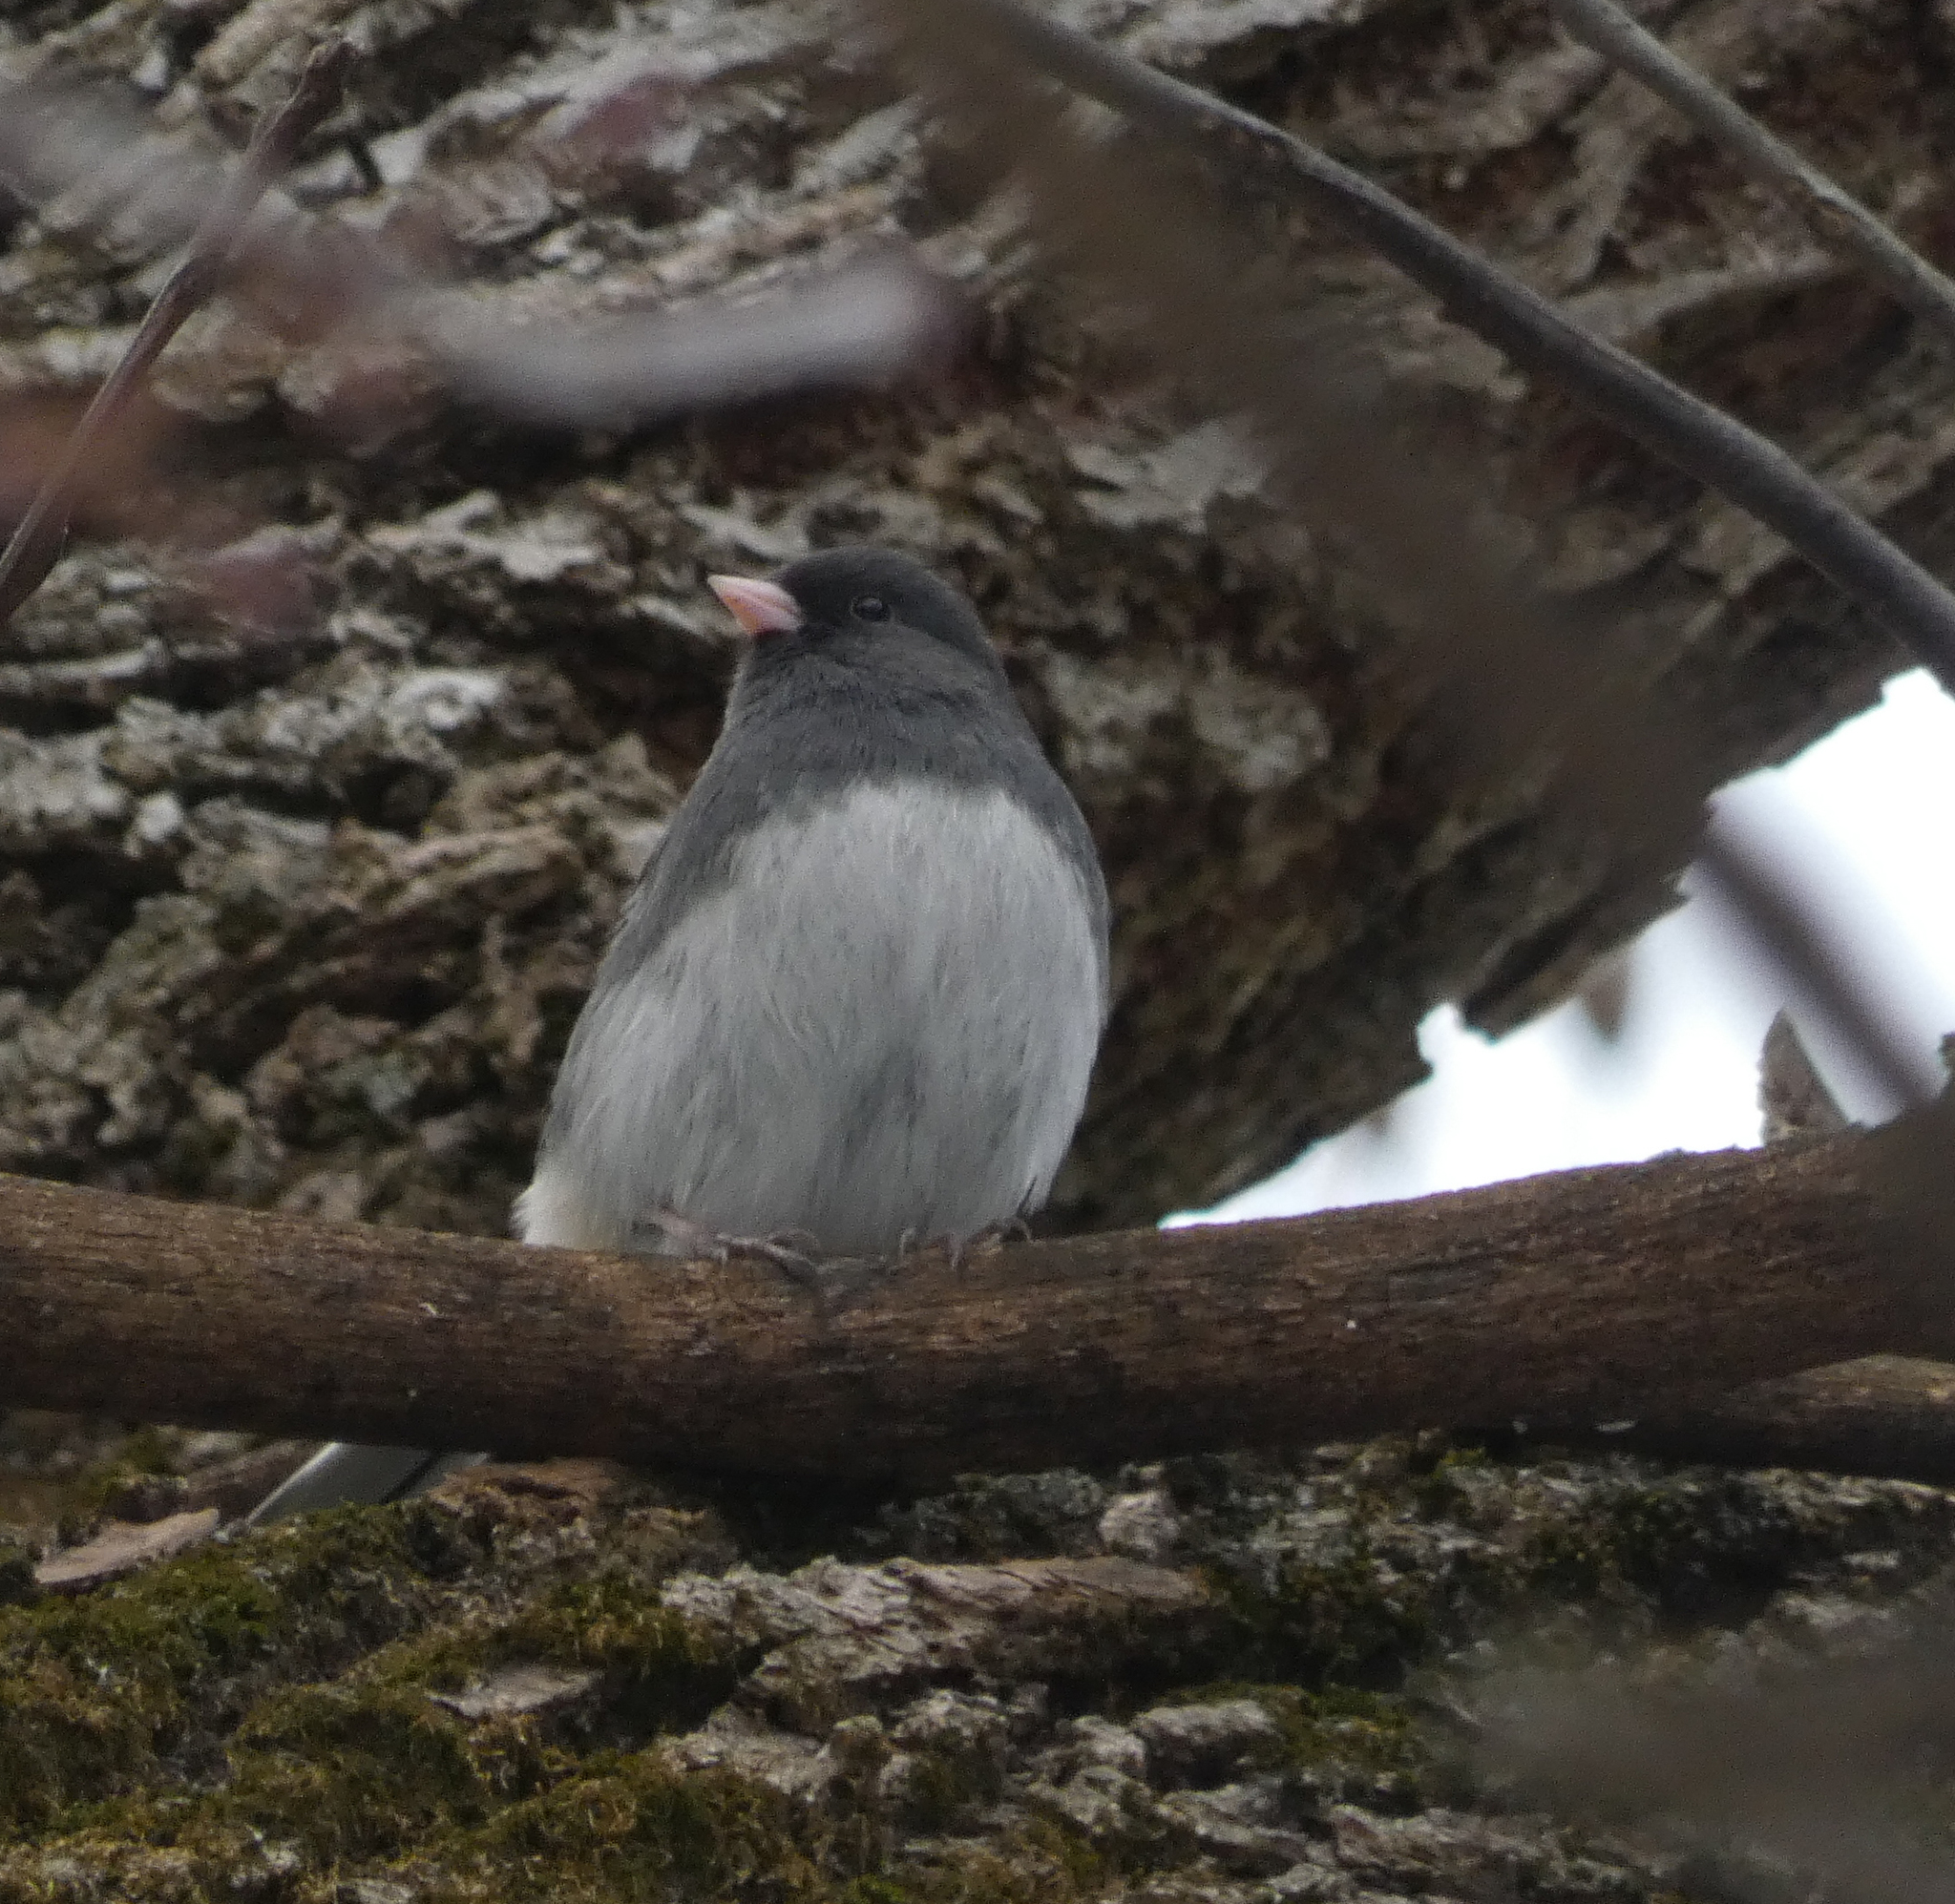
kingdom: Animalia
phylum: Chordata
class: Aves
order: Passeriformes
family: Passerellidae
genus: Junco
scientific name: Junco hyemalis
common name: Dark-eyed junco
